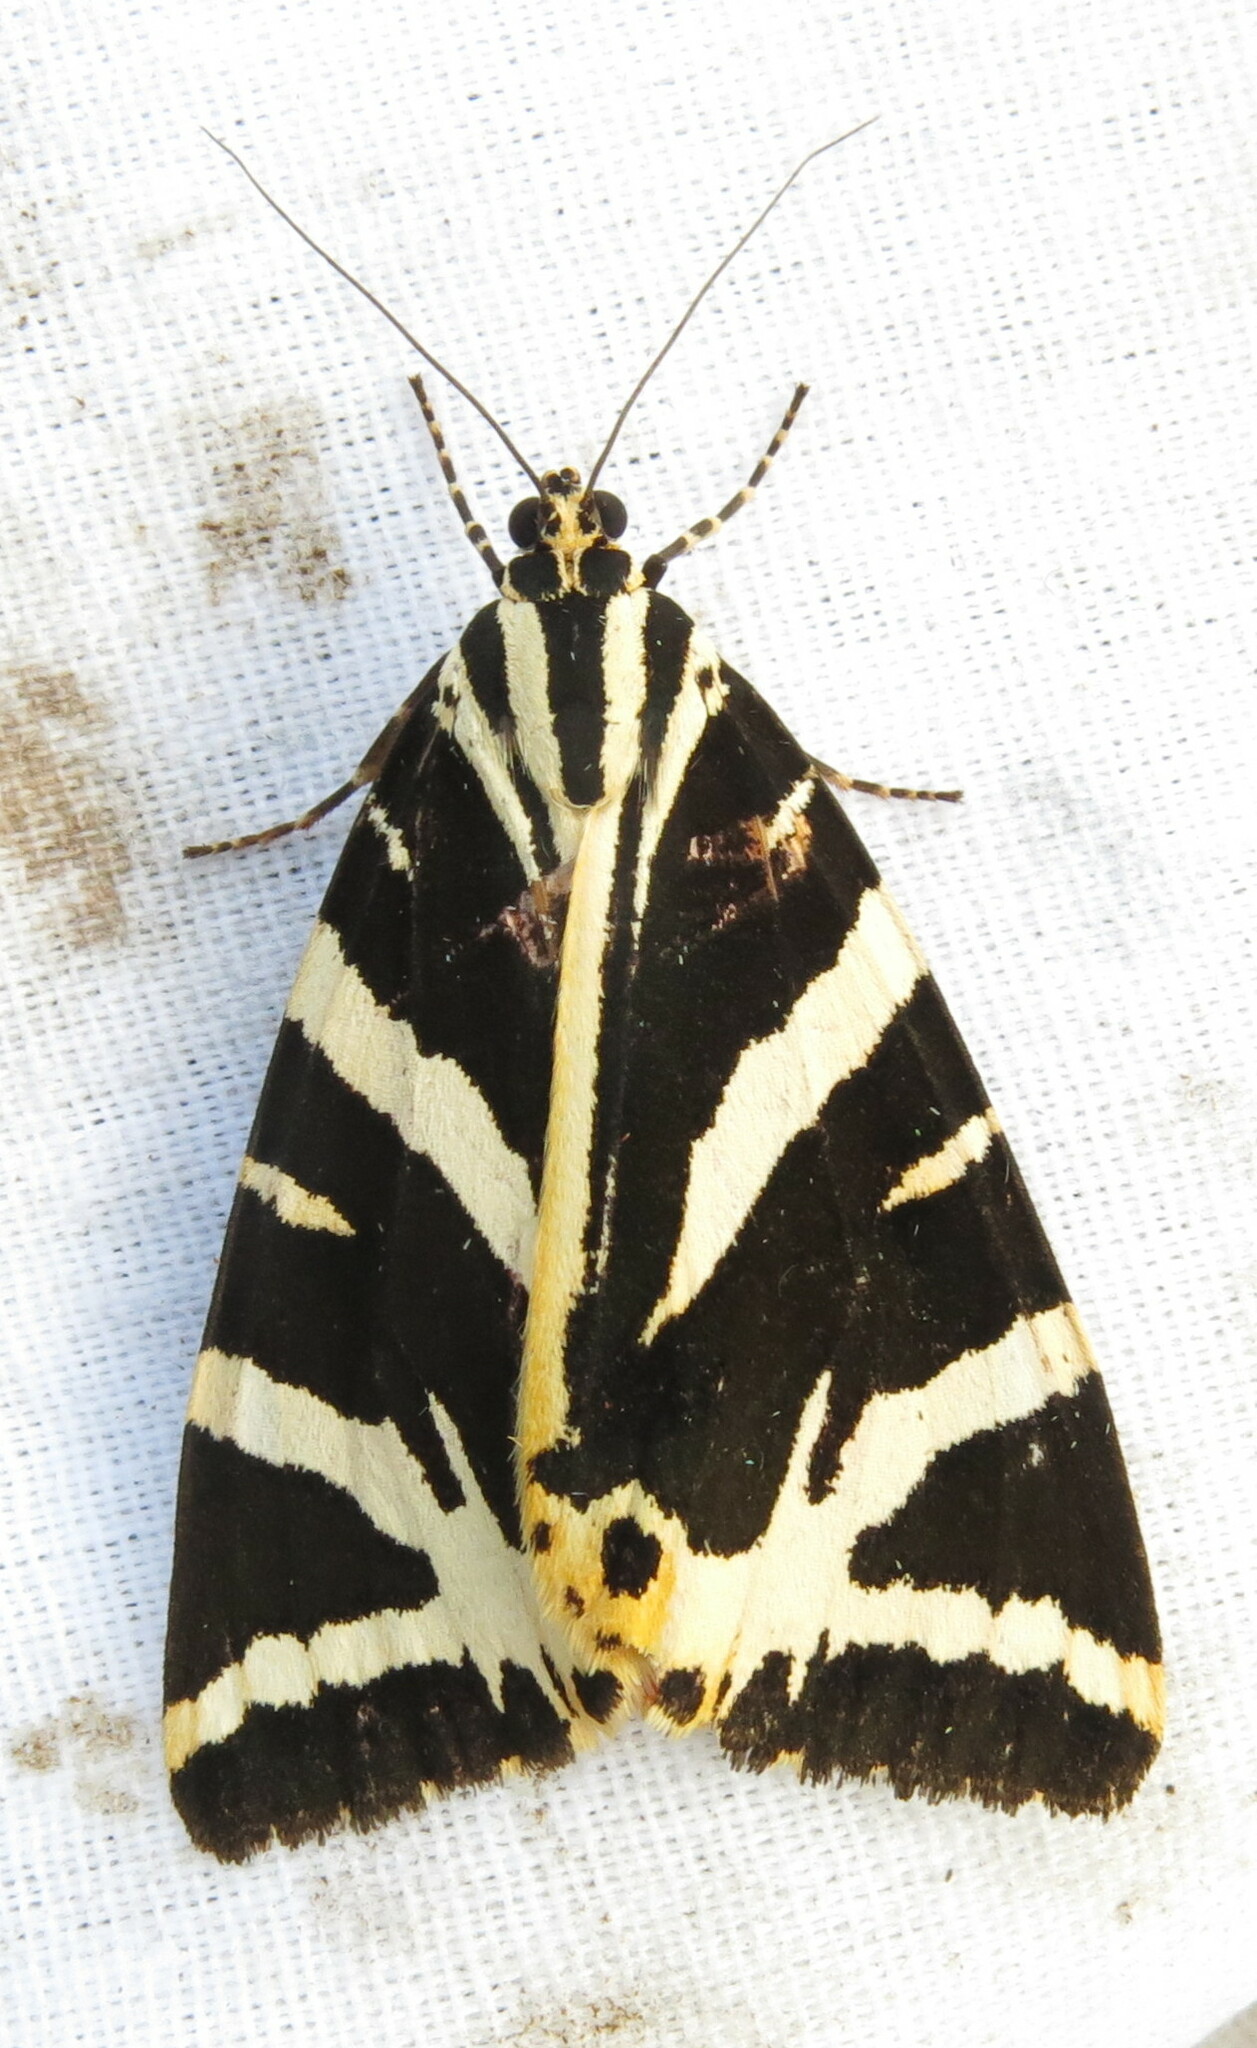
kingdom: Animalia
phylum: Arthropoda
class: Insecta
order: Lepidoptera
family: Erebidae
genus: Euplagia
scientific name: Euplagia quadripunctaria
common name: Jersey tiger
